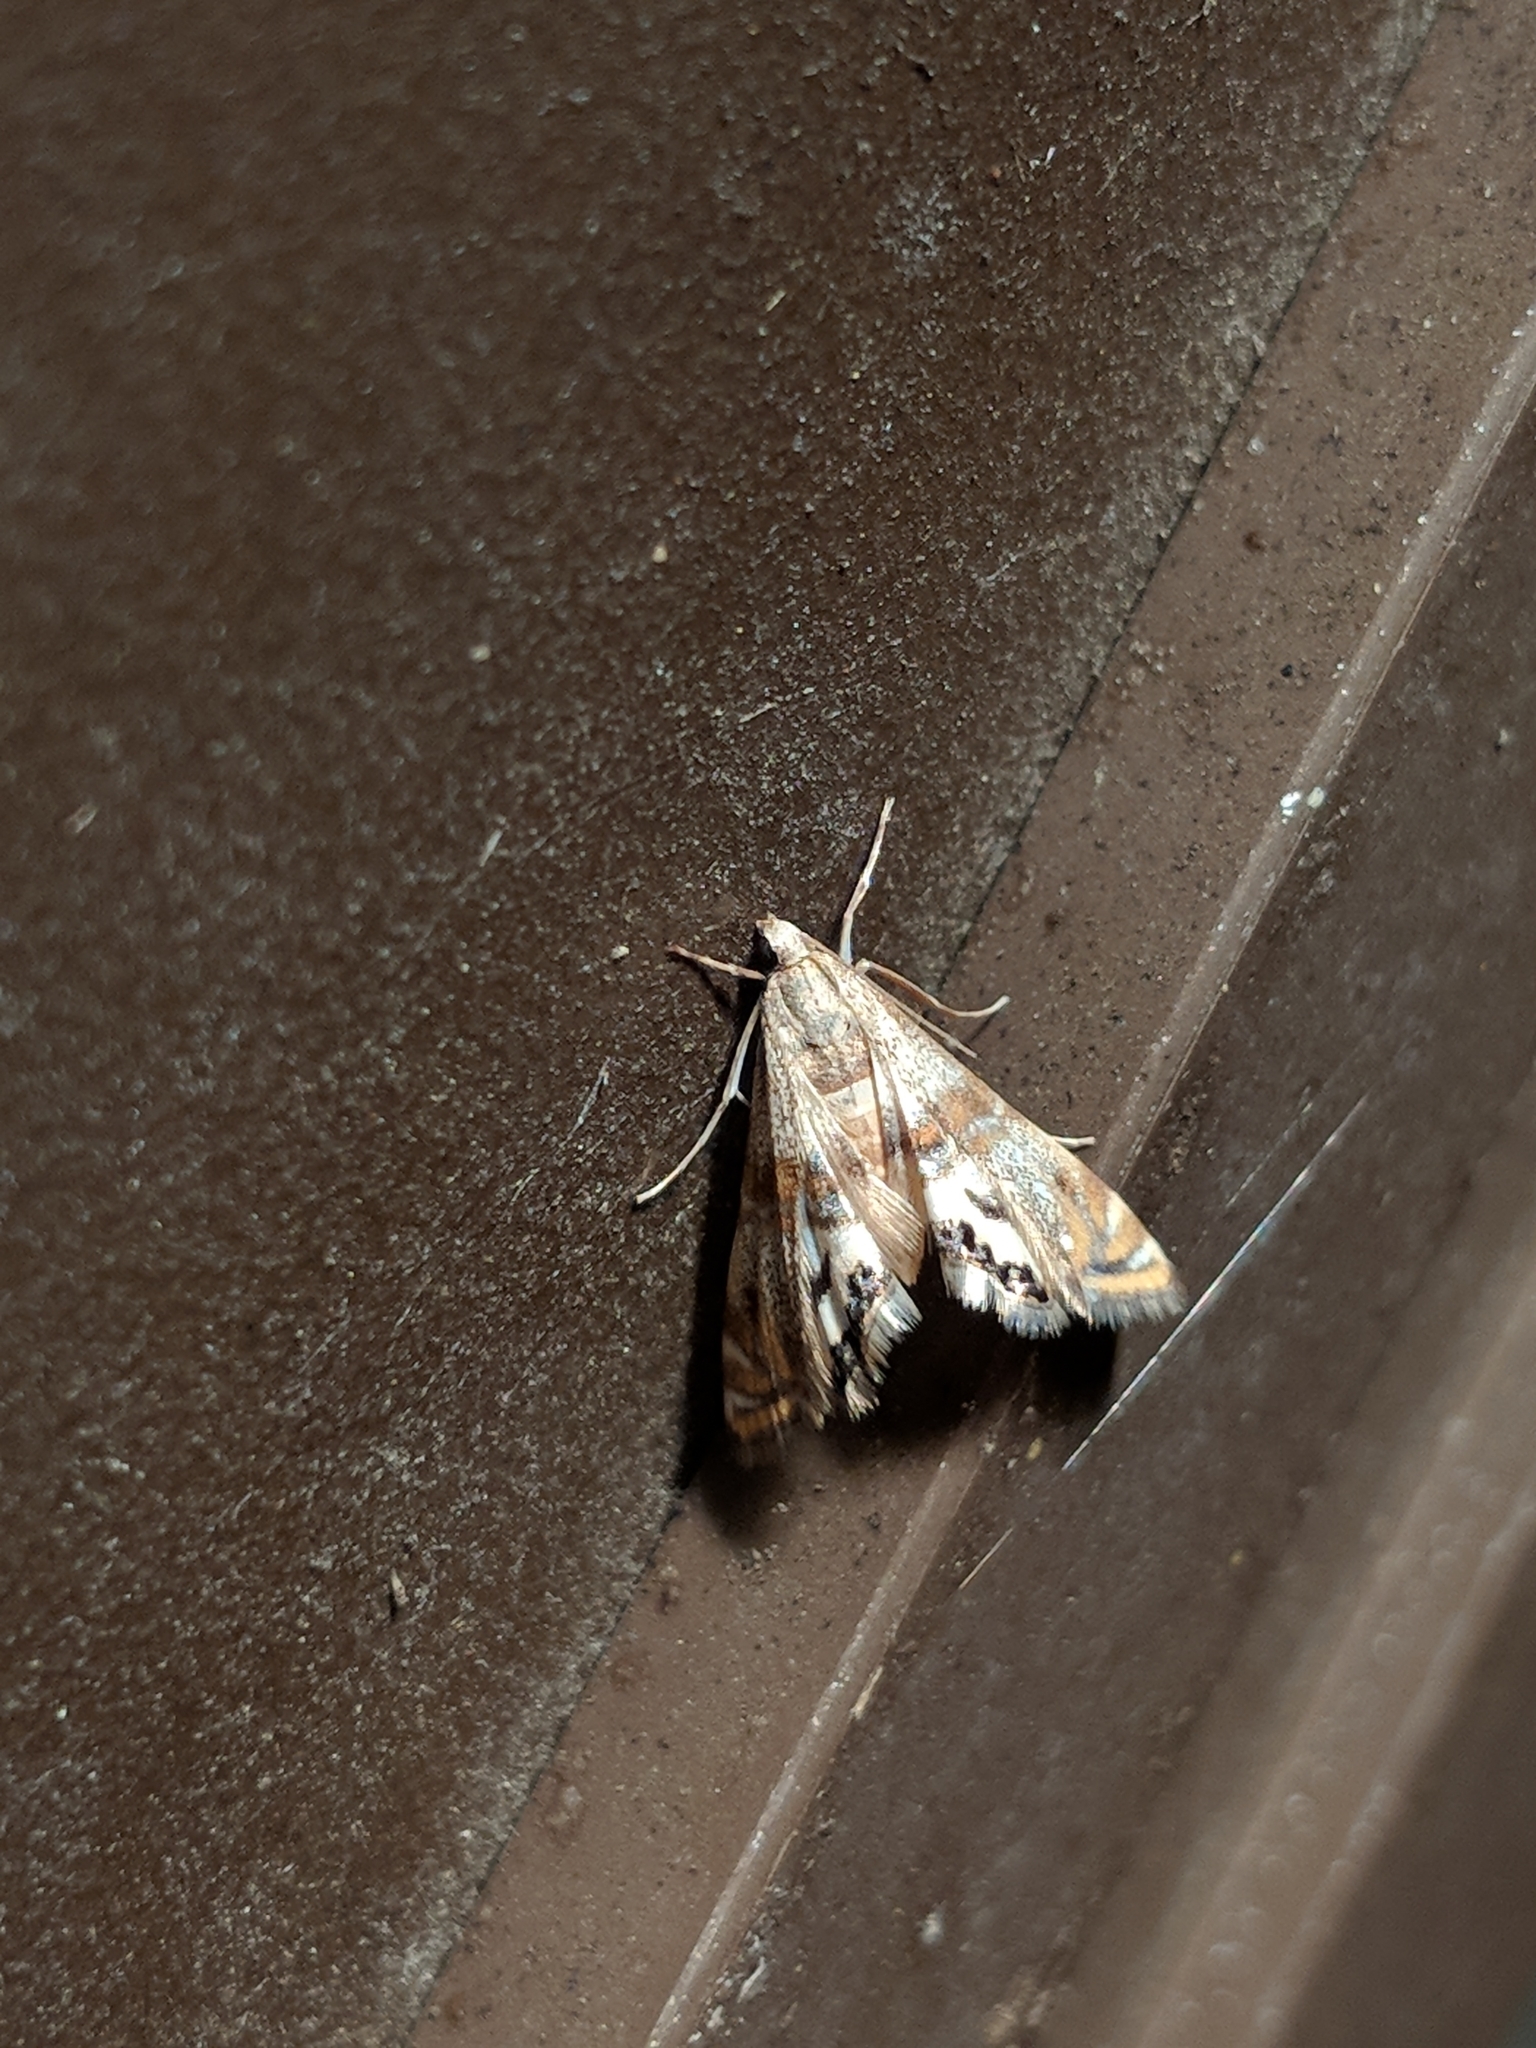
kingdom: Animalia
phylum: Arthropoda
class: Insecta
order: Lepidoptera
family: Crambidae
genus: Petrophila
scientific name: Petrophila bifascialis
